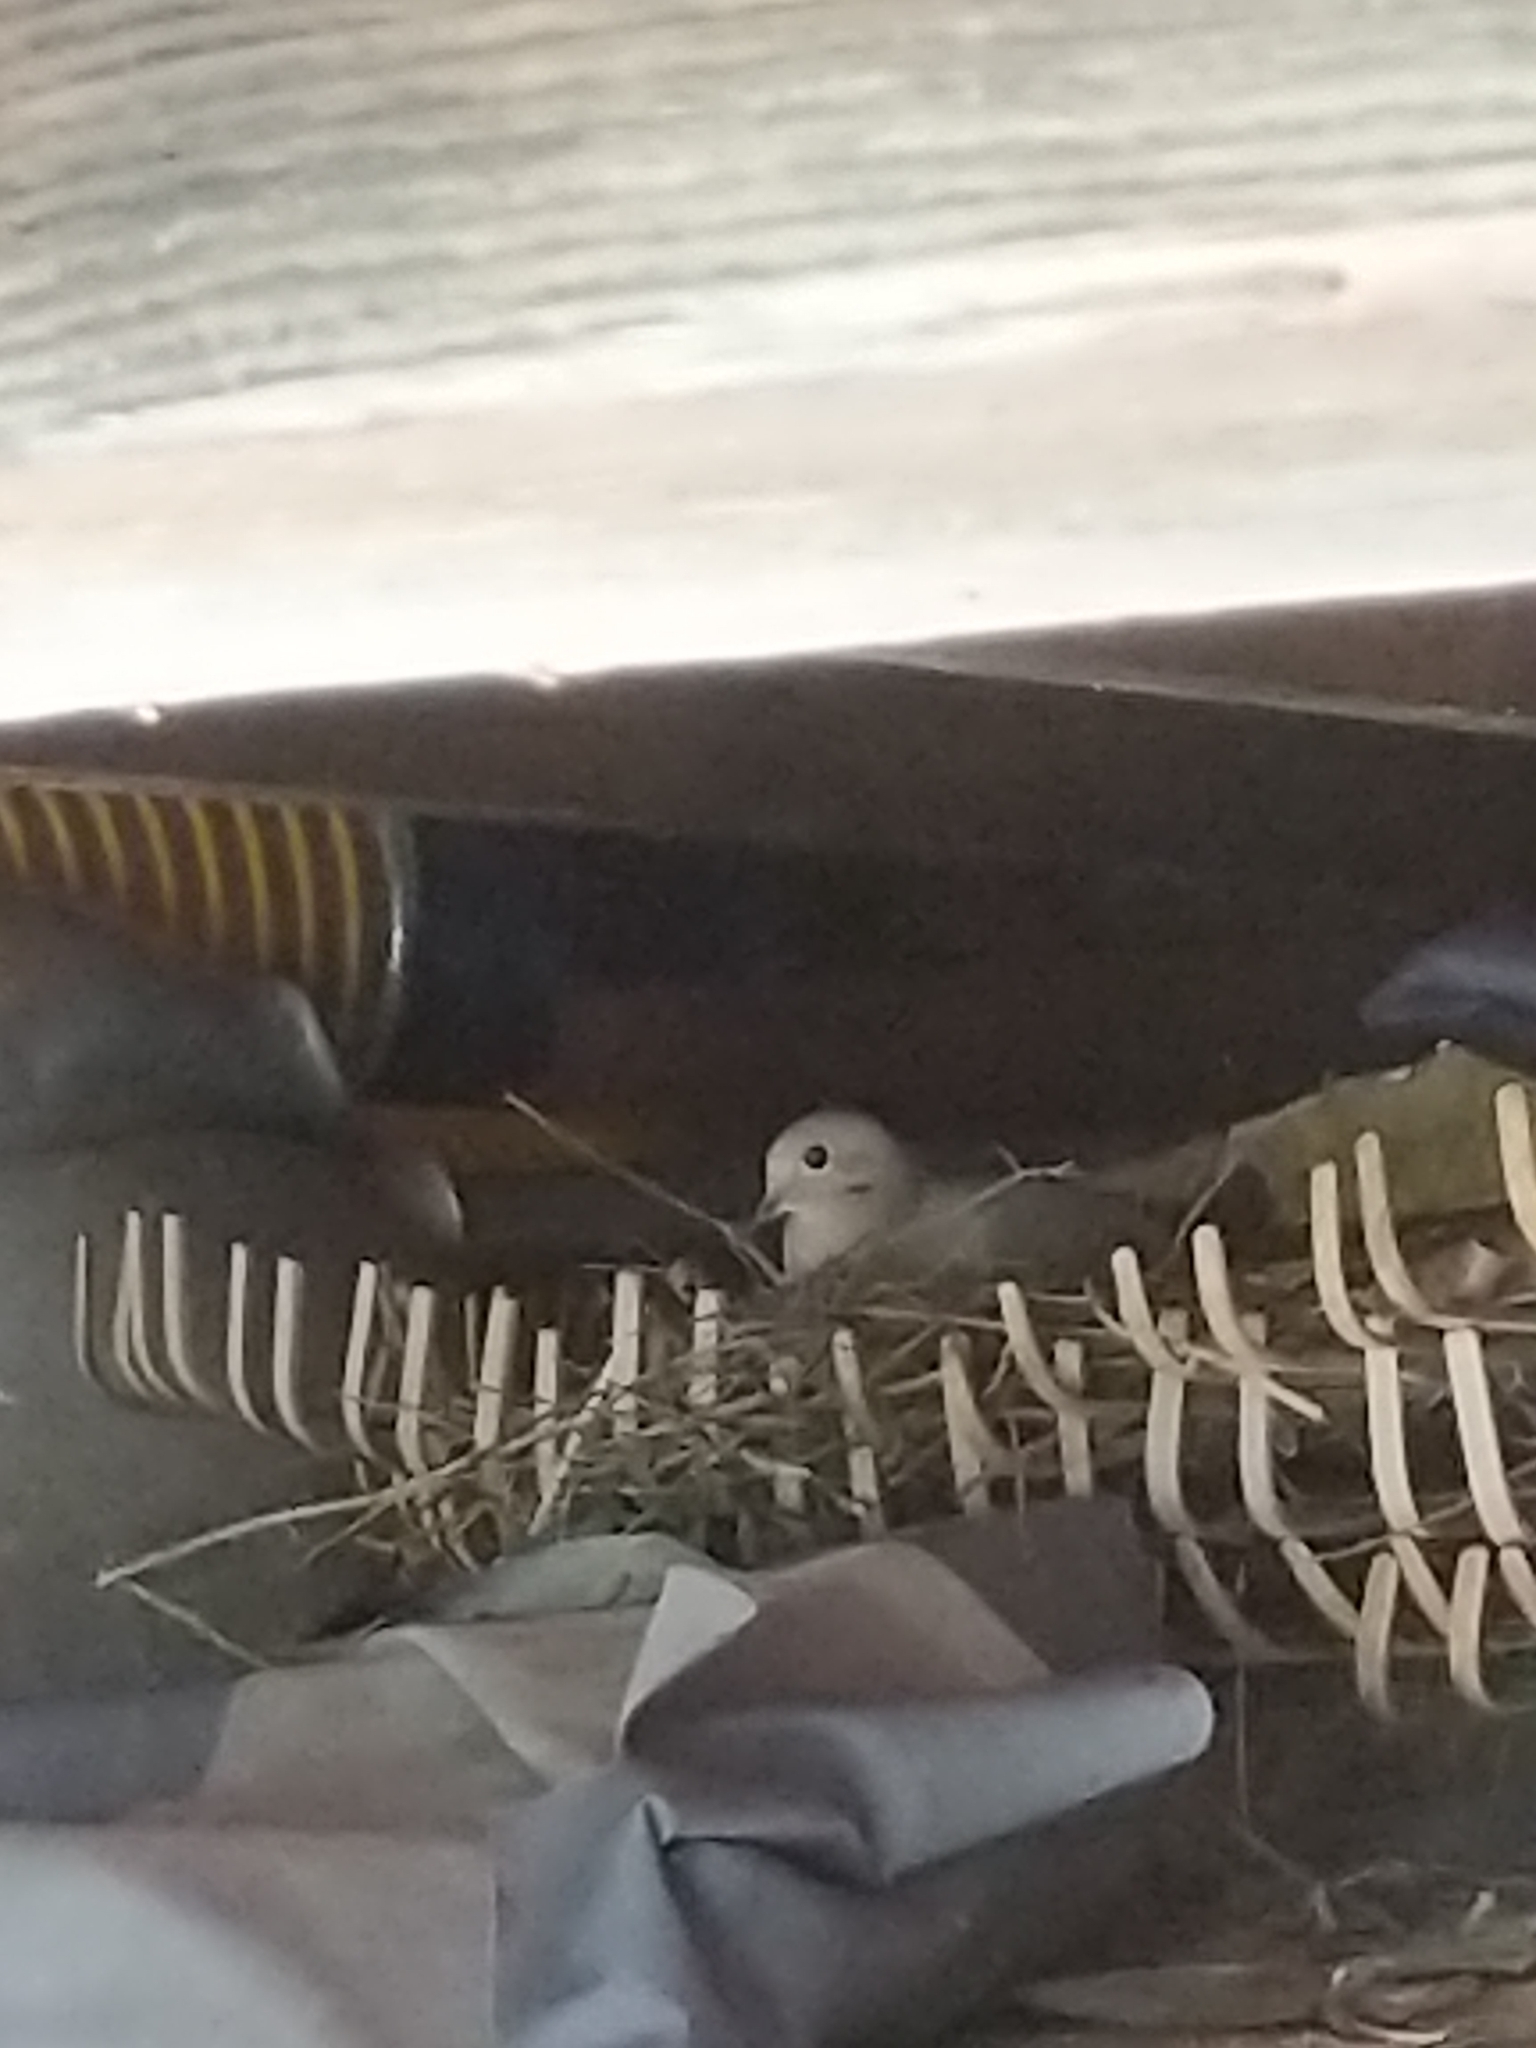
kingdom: Animalia
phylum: Chordata
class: Aves
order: Columbiformes
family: Columbidae
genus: Zenaida
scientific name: Zenaida macroura
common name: Mourning dove
